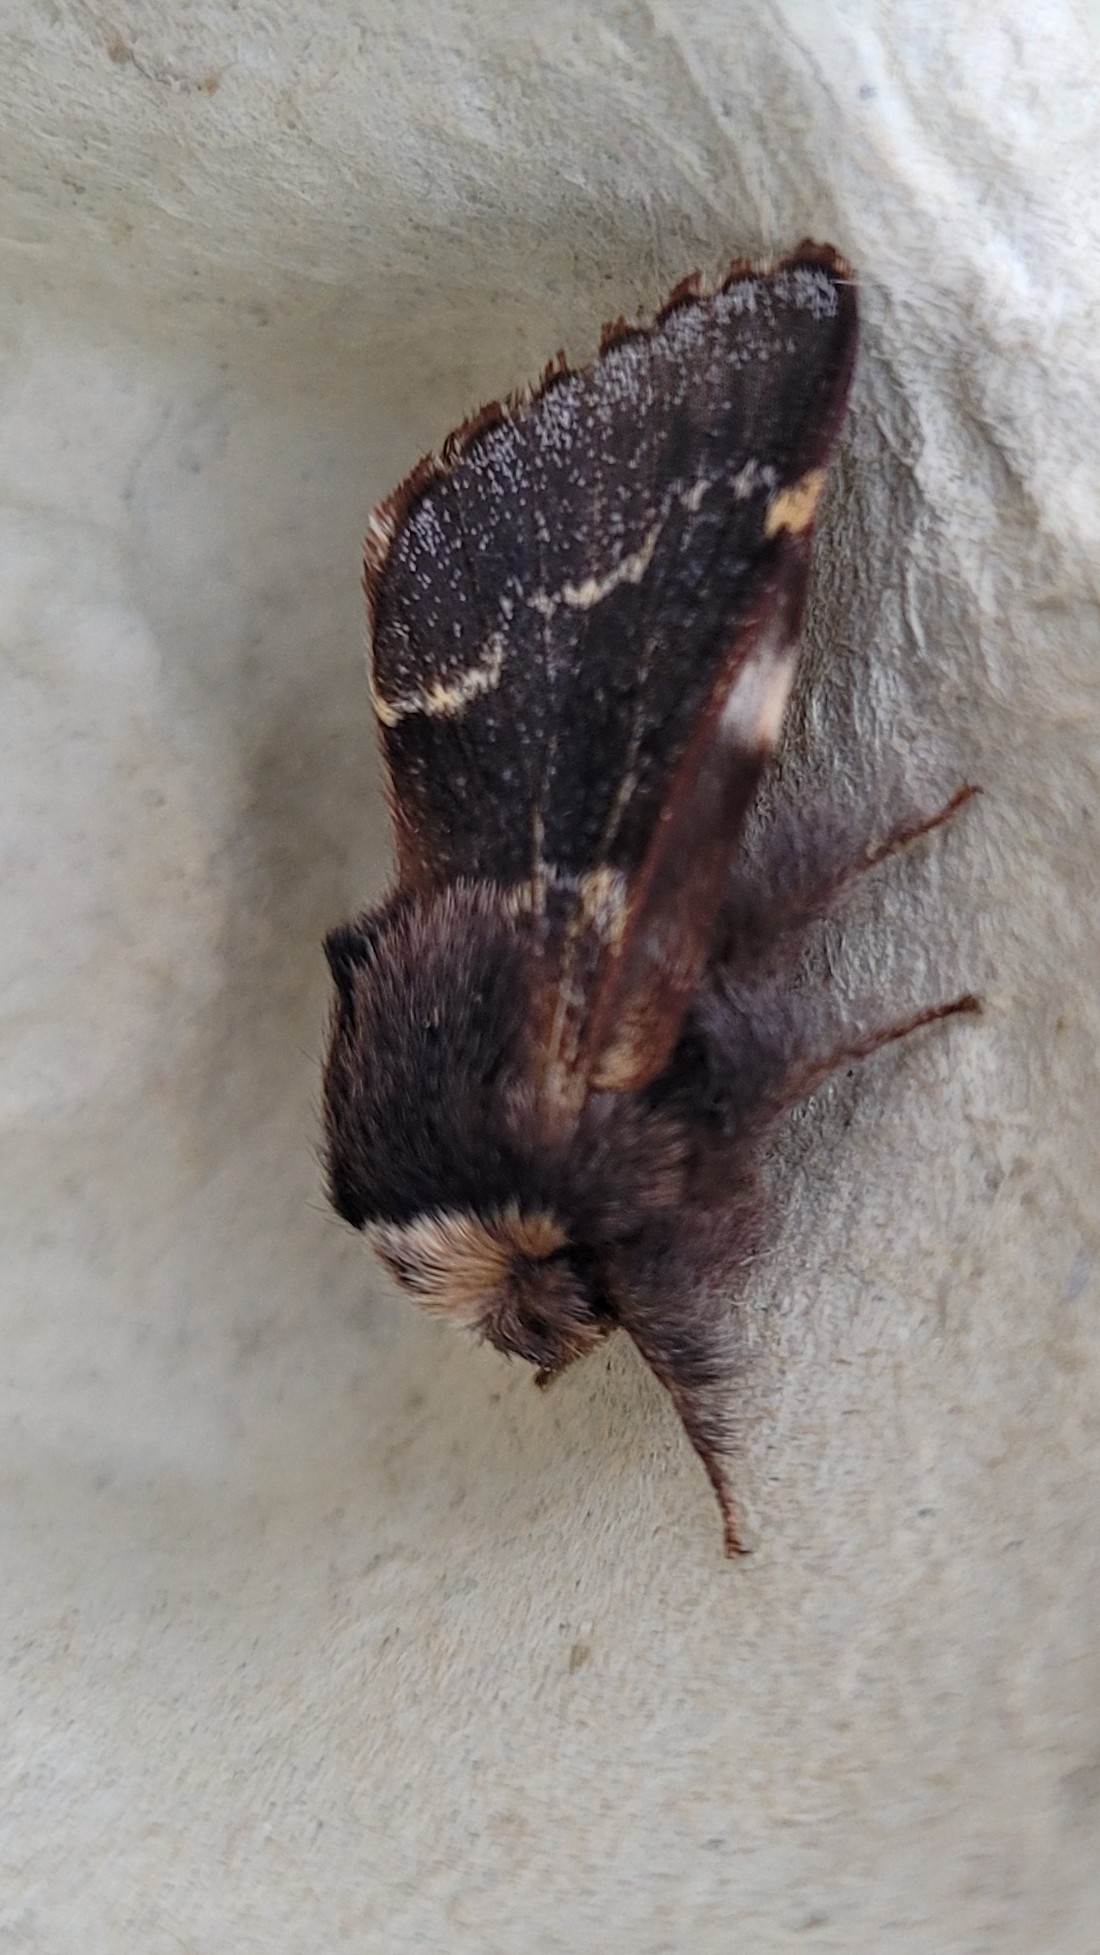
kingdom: Animalia
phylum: Arthropoda
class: Insecta
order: Lepidoptera
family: Lasiocampidae
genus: Poecilocampa
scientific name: Poecilocampa populi
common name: December moth
